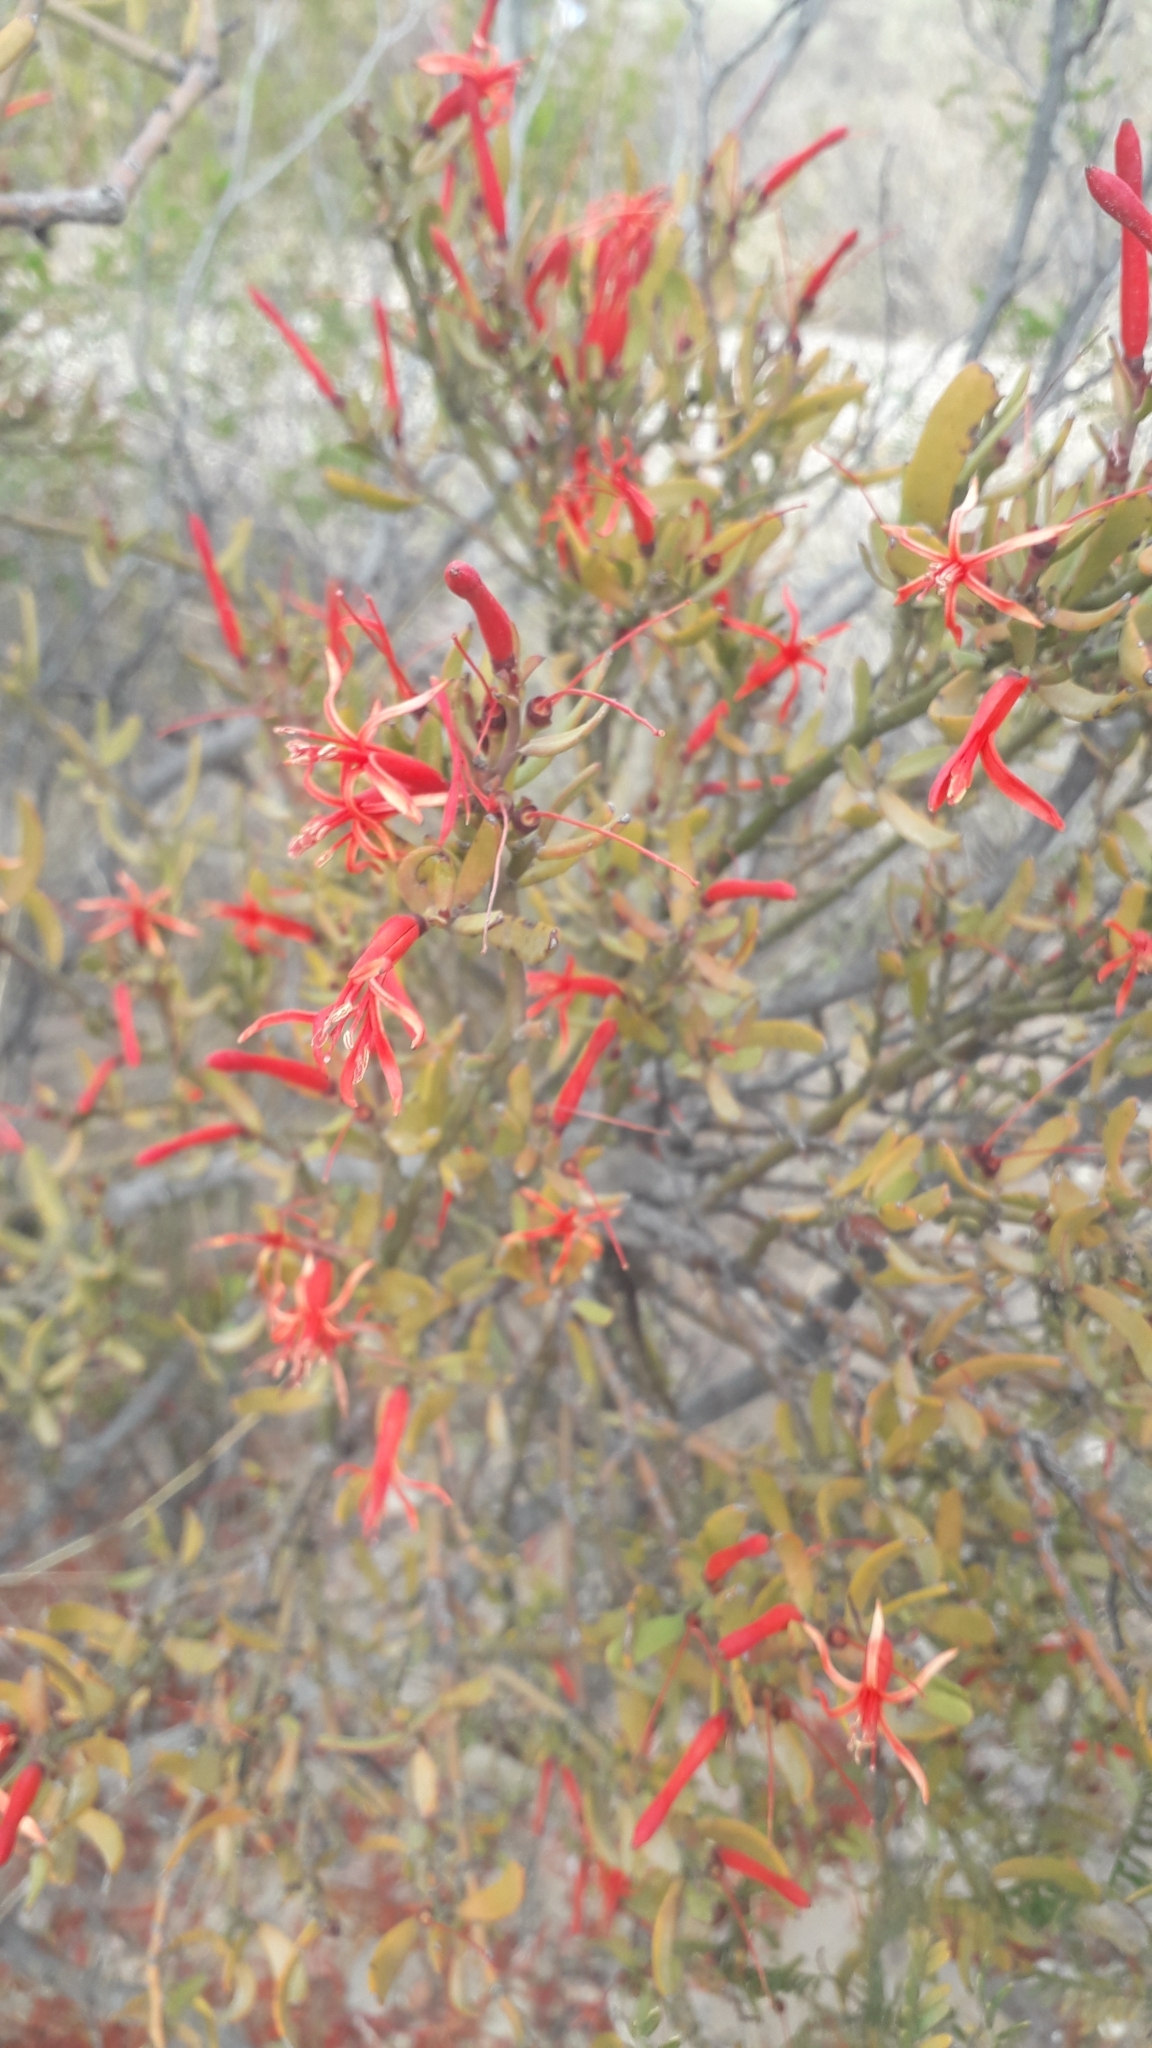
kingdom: Plantae
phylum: Tracheophyta
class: Magnoliopsida
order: Santalales
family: Loranthaceae
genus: Ligaria
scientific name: Ligaria cuneifolia
